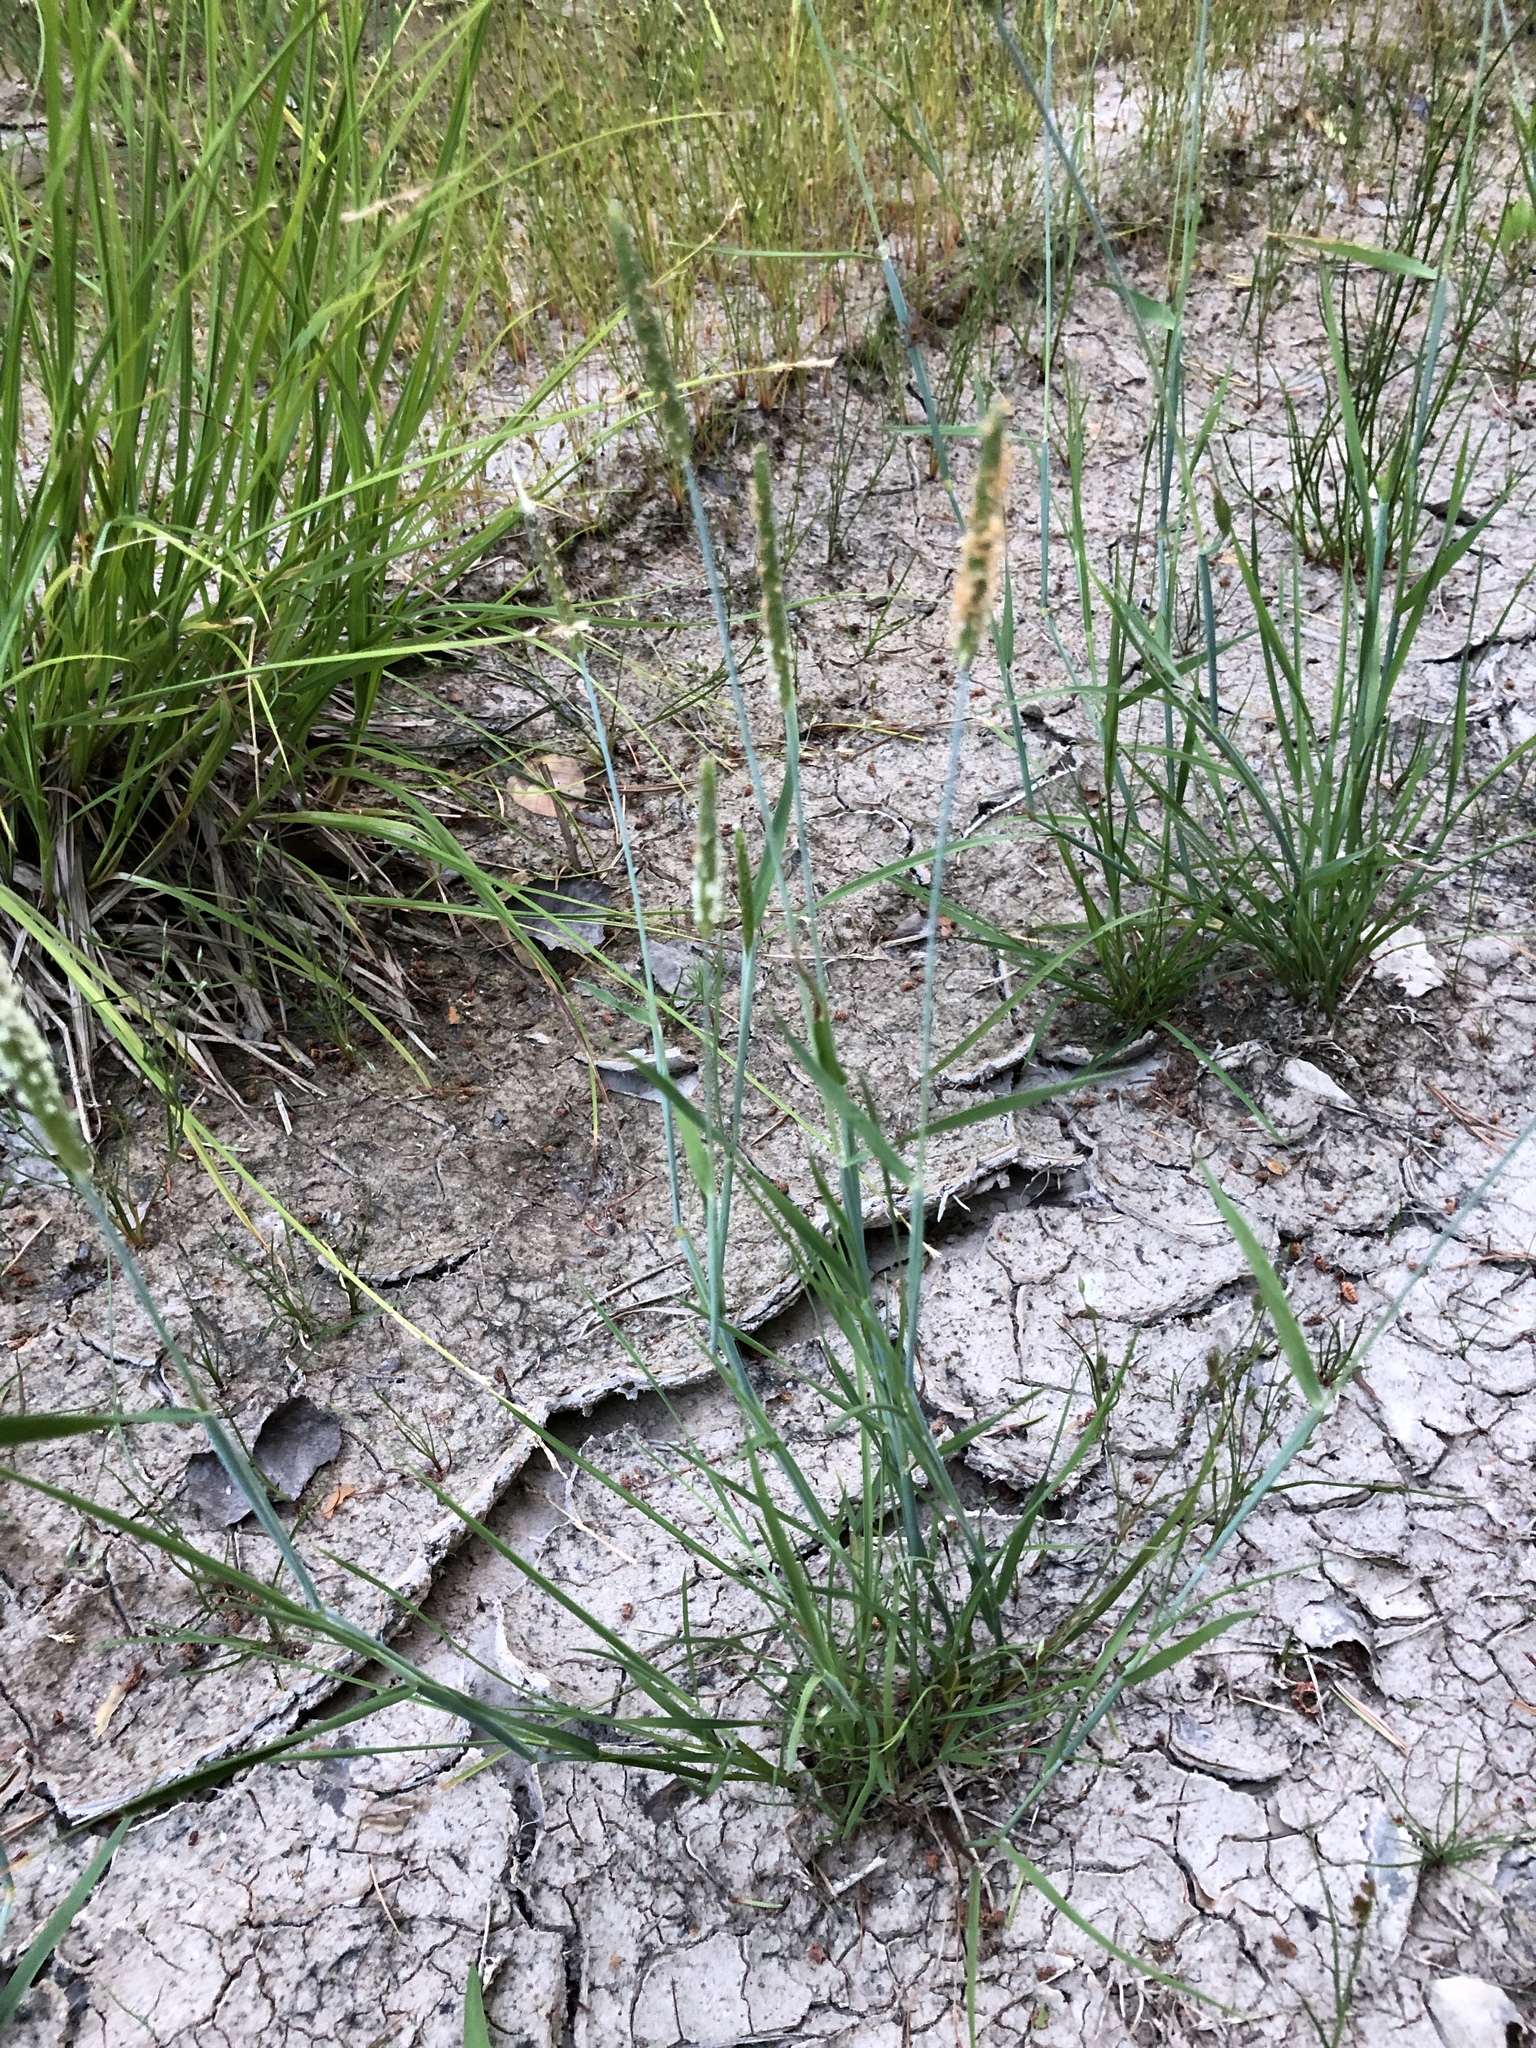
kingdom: Plantae
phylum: Tracheophyta
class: Liliopsida
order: Poales
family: Poaceae
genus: Alopecurus
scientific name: Alopecurus aequalis
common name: Orange foxtail
